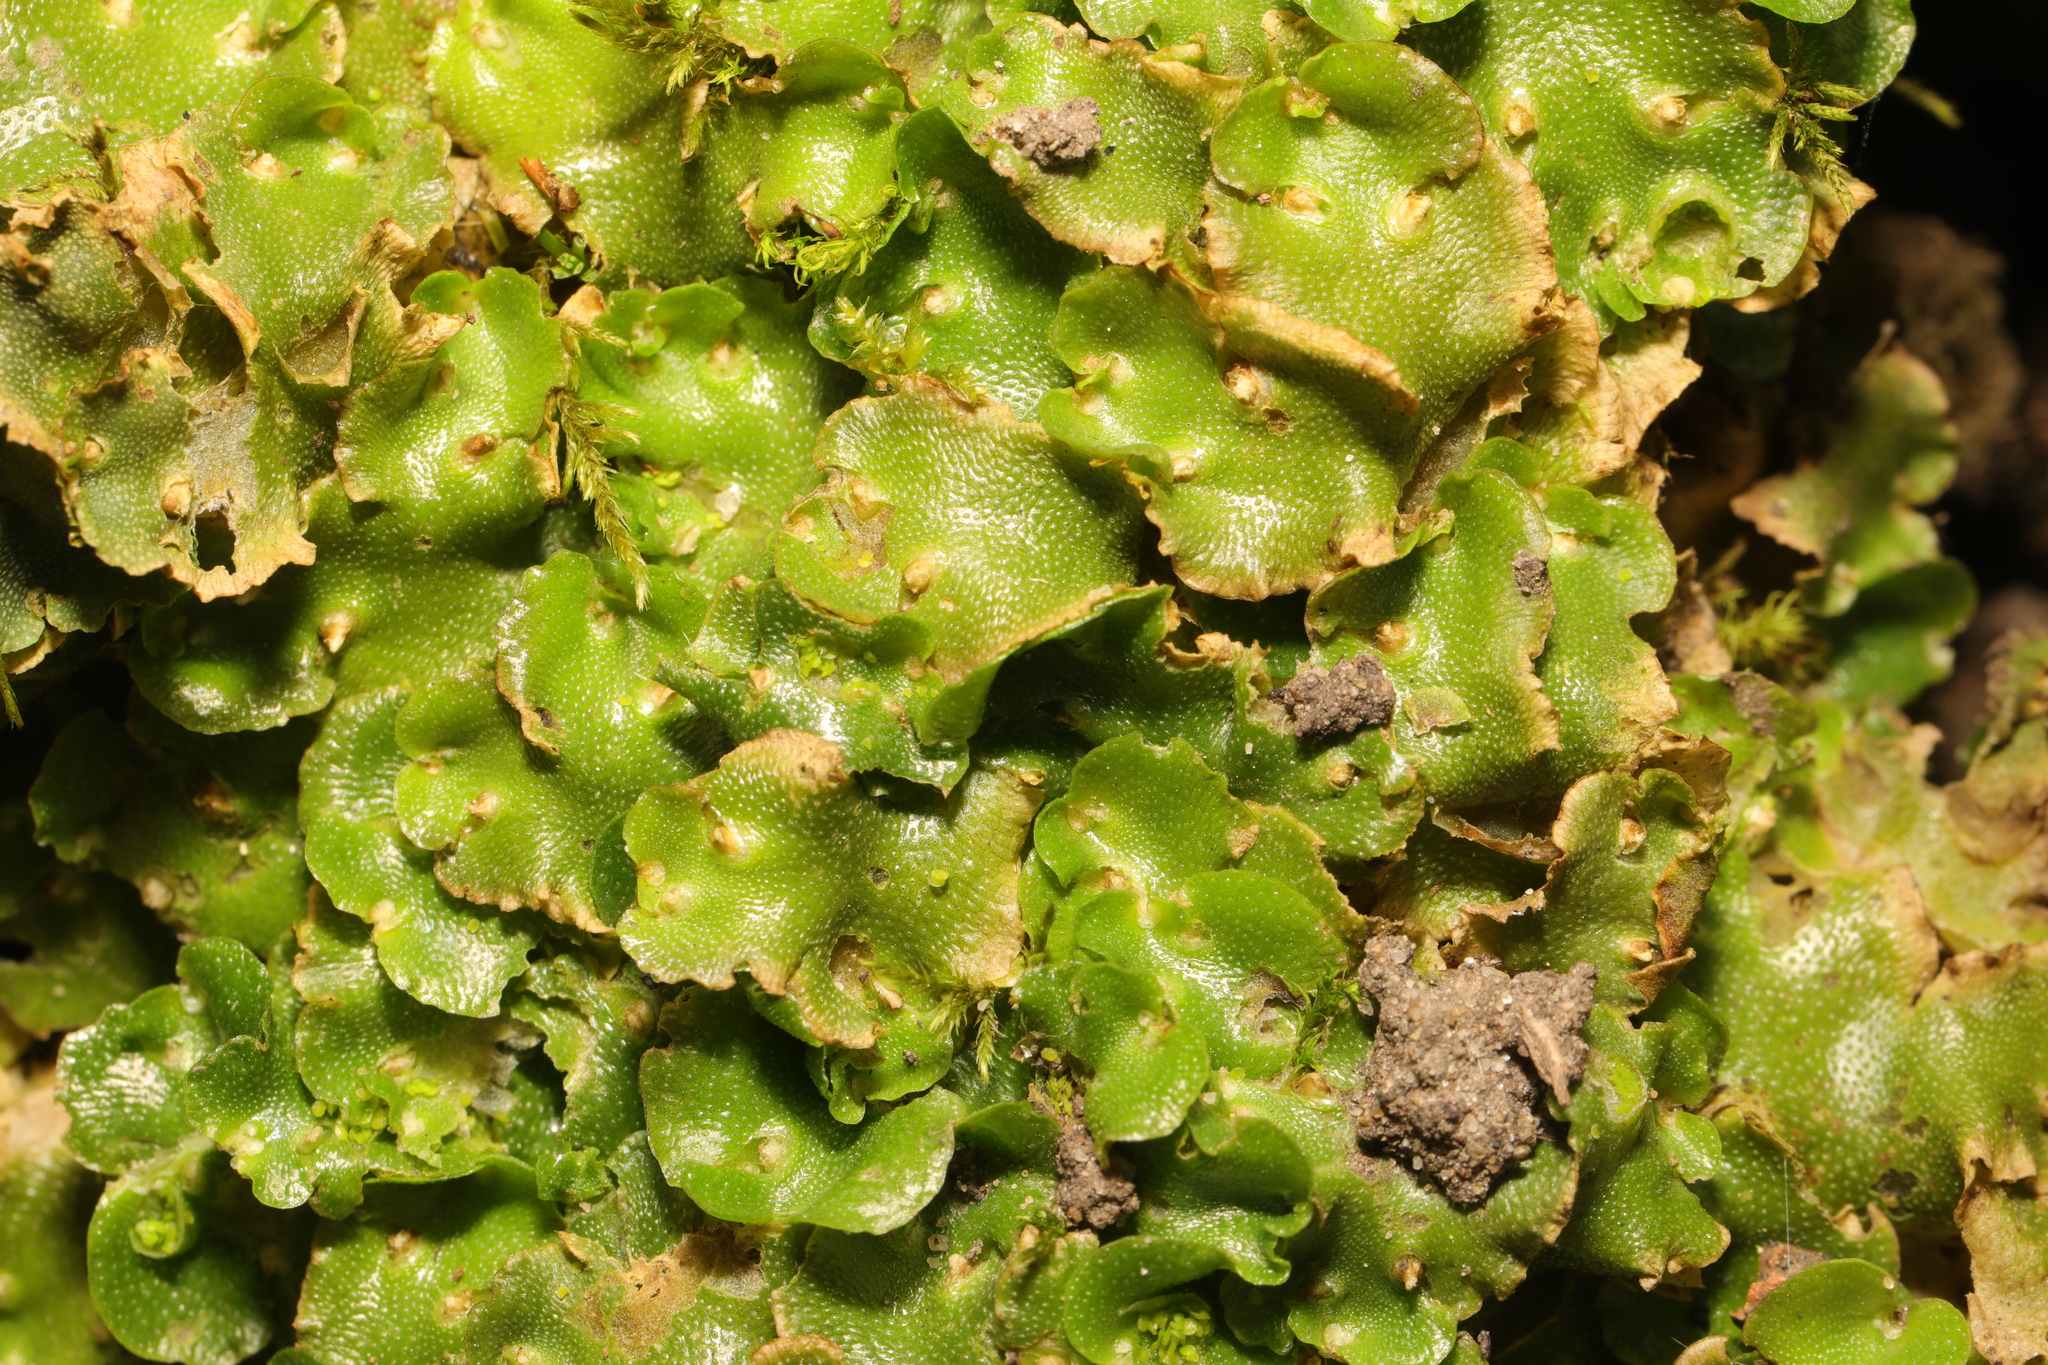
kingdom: Plantae
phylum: Marchantiophyta
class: Marchantiopsida
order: Lunulariales
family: Lunulariaceae
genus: Lunularia
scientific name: Lunularia cruciata
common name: Crescent-cup liverwort
